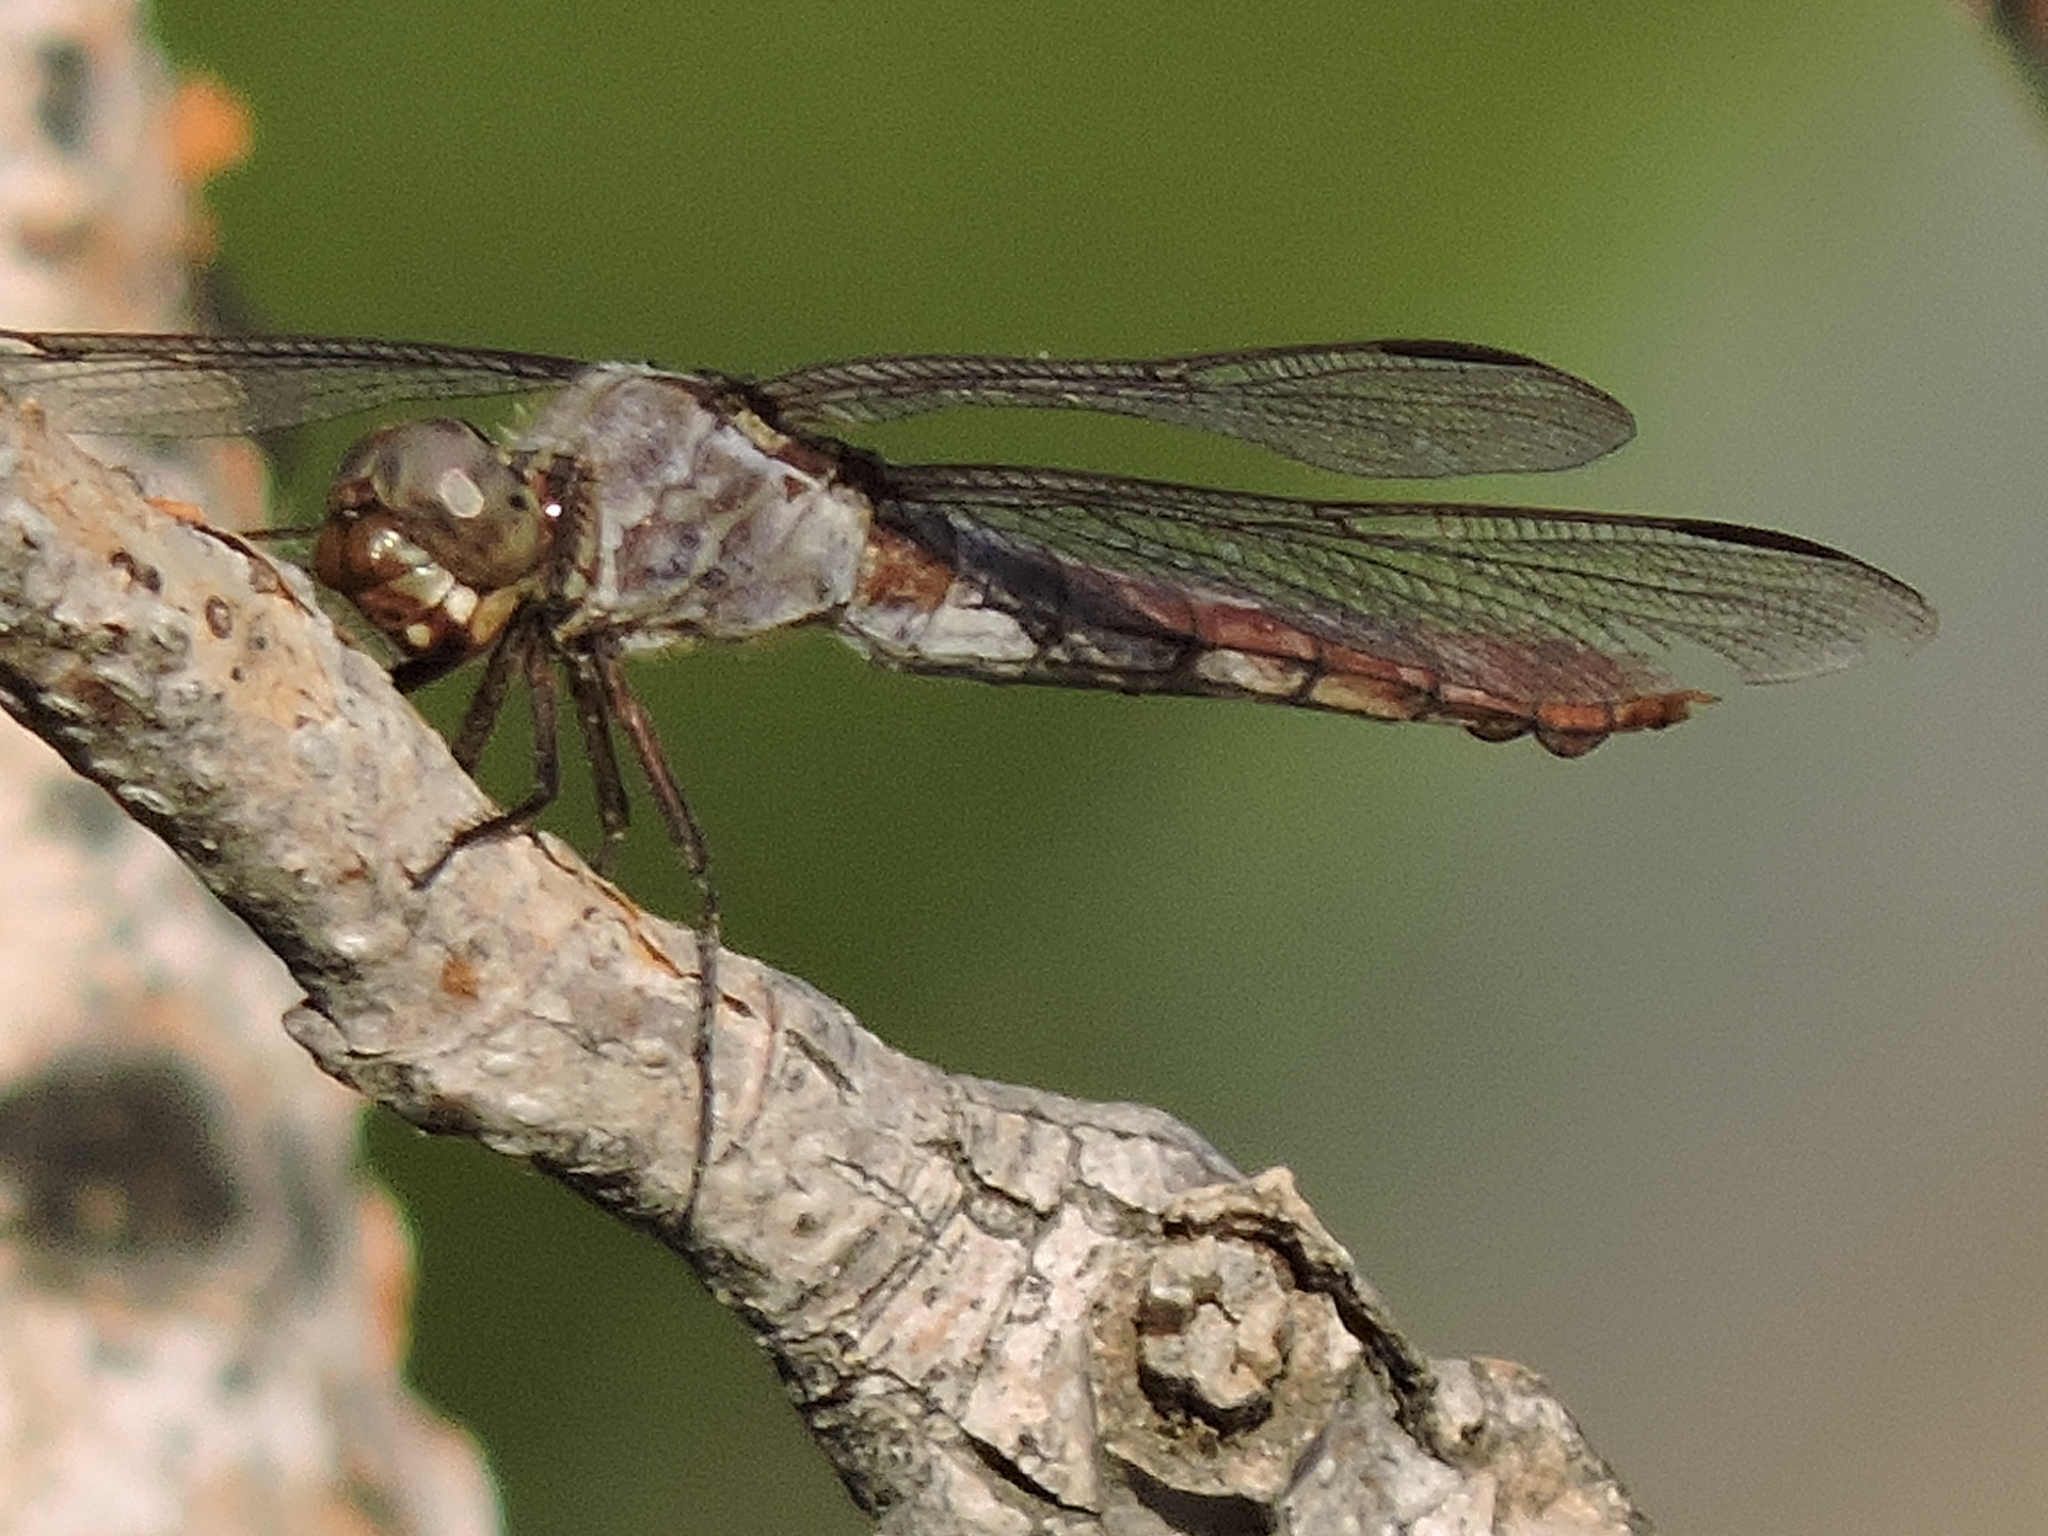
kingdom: Animalia
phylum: Arthropoda
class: Insecta
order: Odonata
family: Libellulidae
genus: Orthemis
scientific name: Orthemis ferruginea
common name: Roseate skimmer
